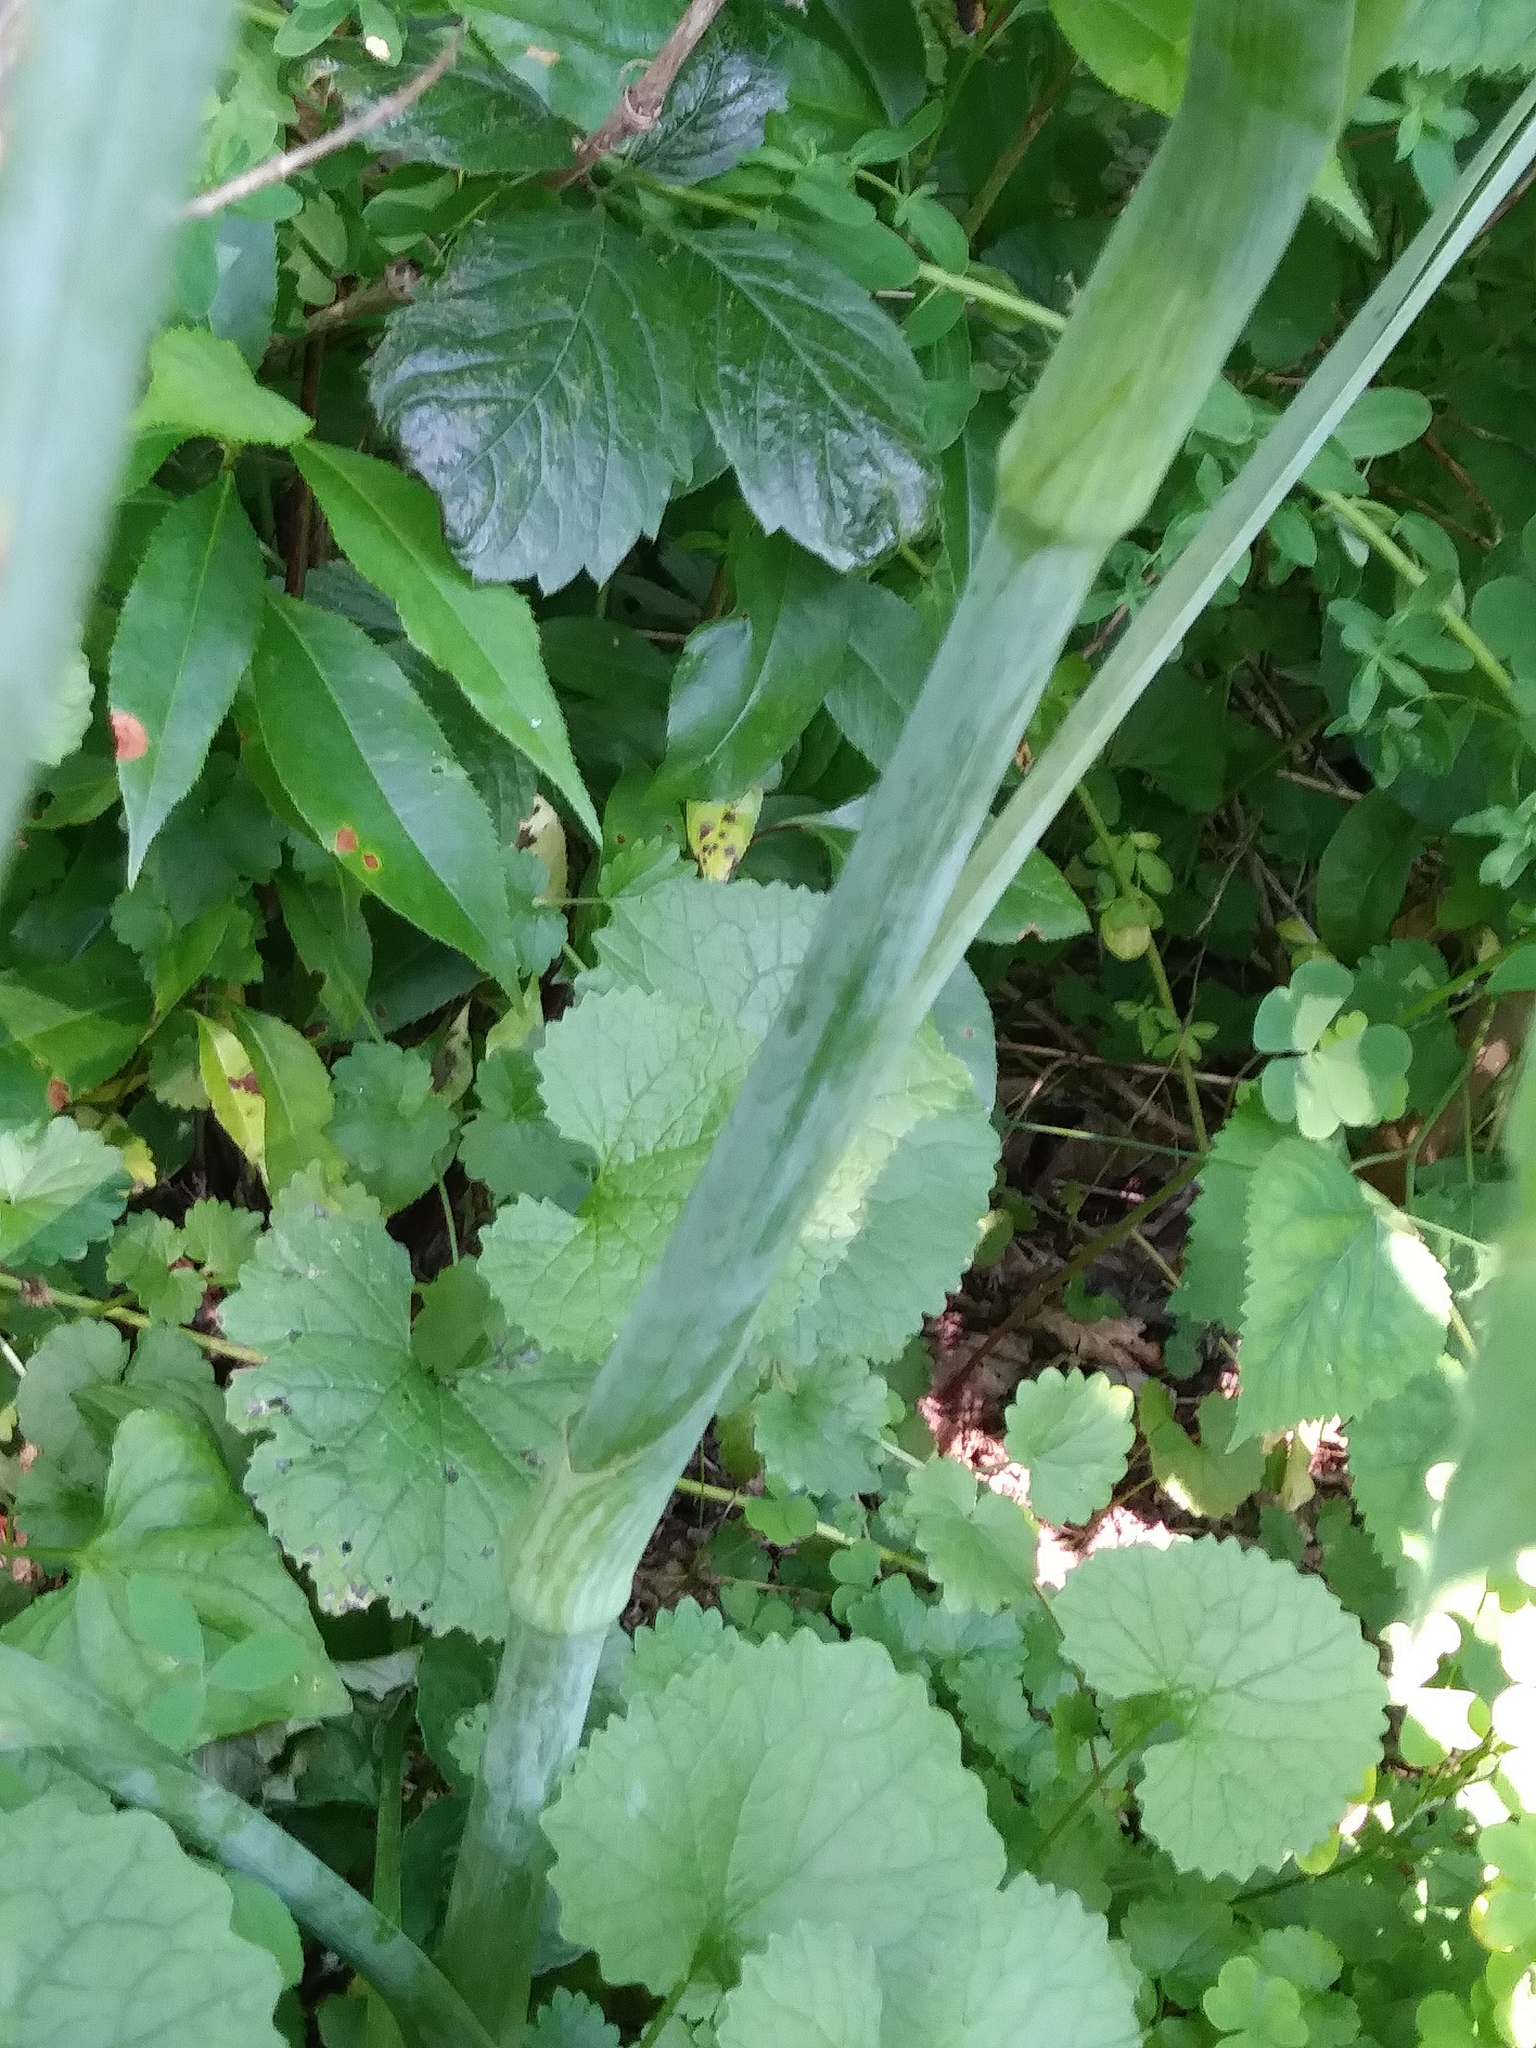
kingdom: Plantae
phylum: Tracheophyta
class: Liliopsida
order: Commelinales
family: Commelinaceae
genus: Tradescantia
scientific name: Tradescantia ohiensis
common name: Ohio spiderwort
